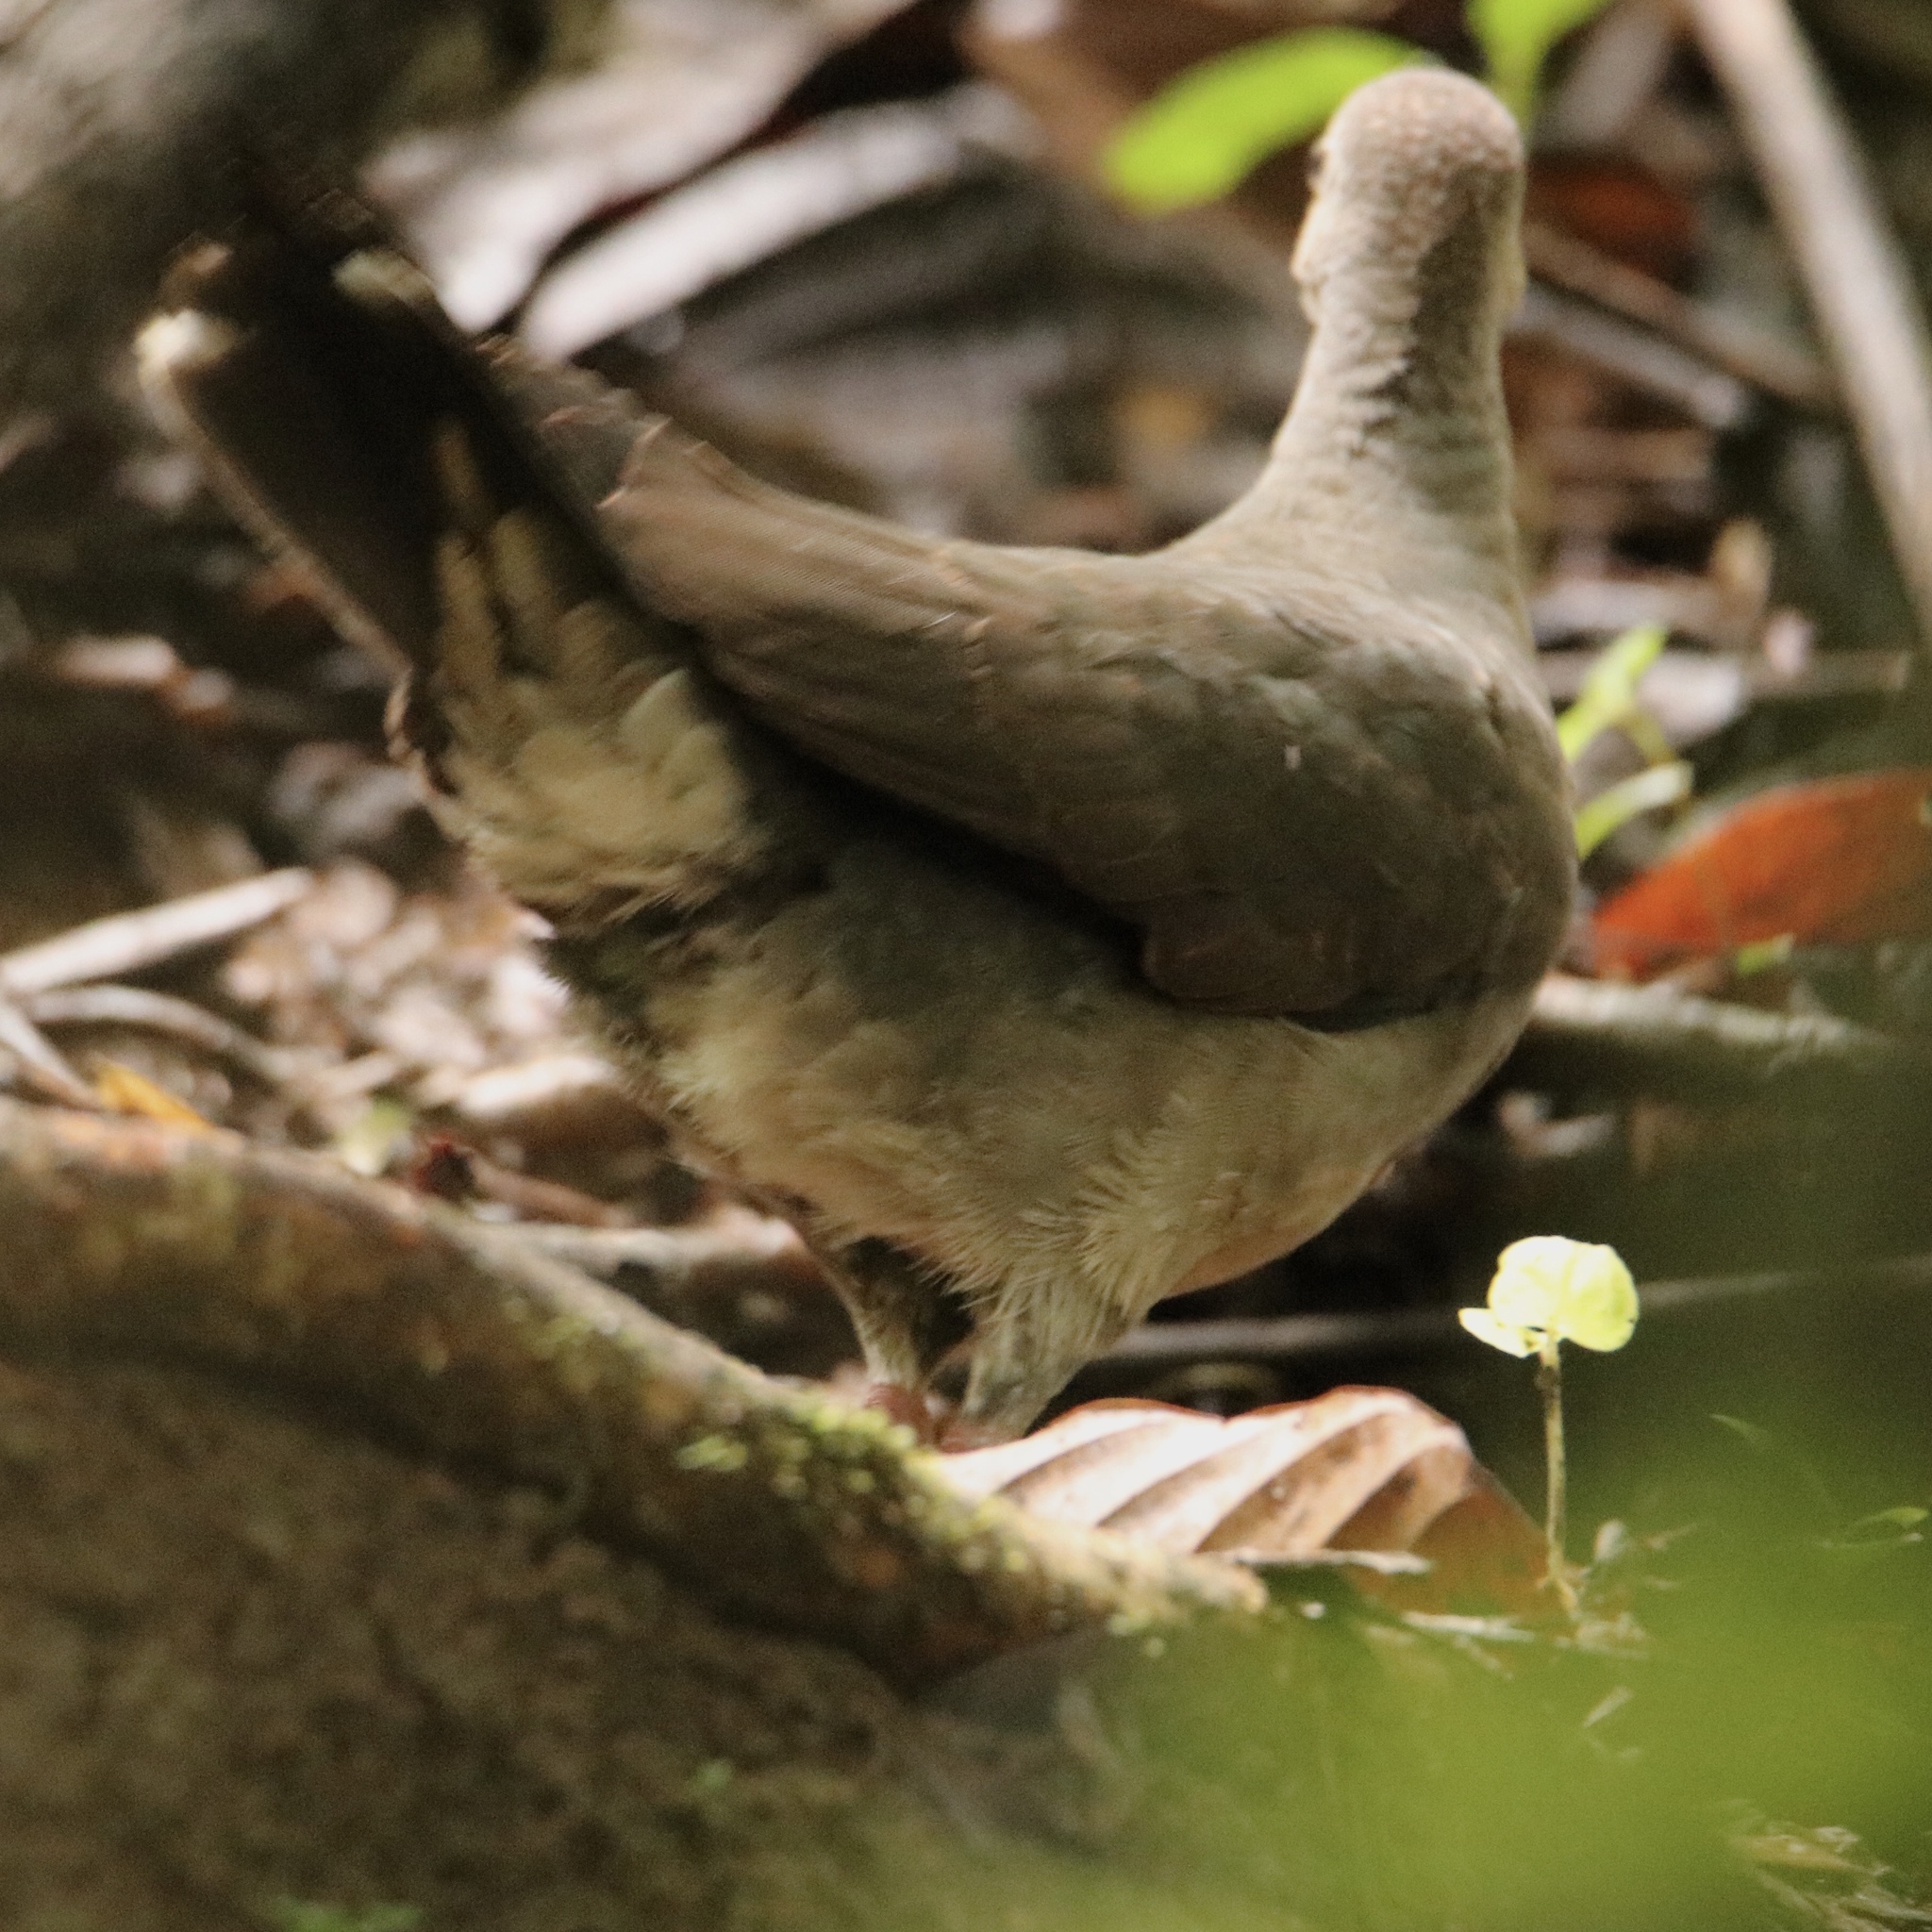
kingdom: Animalia
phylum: Chordata
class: Aves
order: Columbiformes
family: Columbidae
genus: Leptotila
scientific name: Leptotila cassinii
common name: Grey-chested dove
